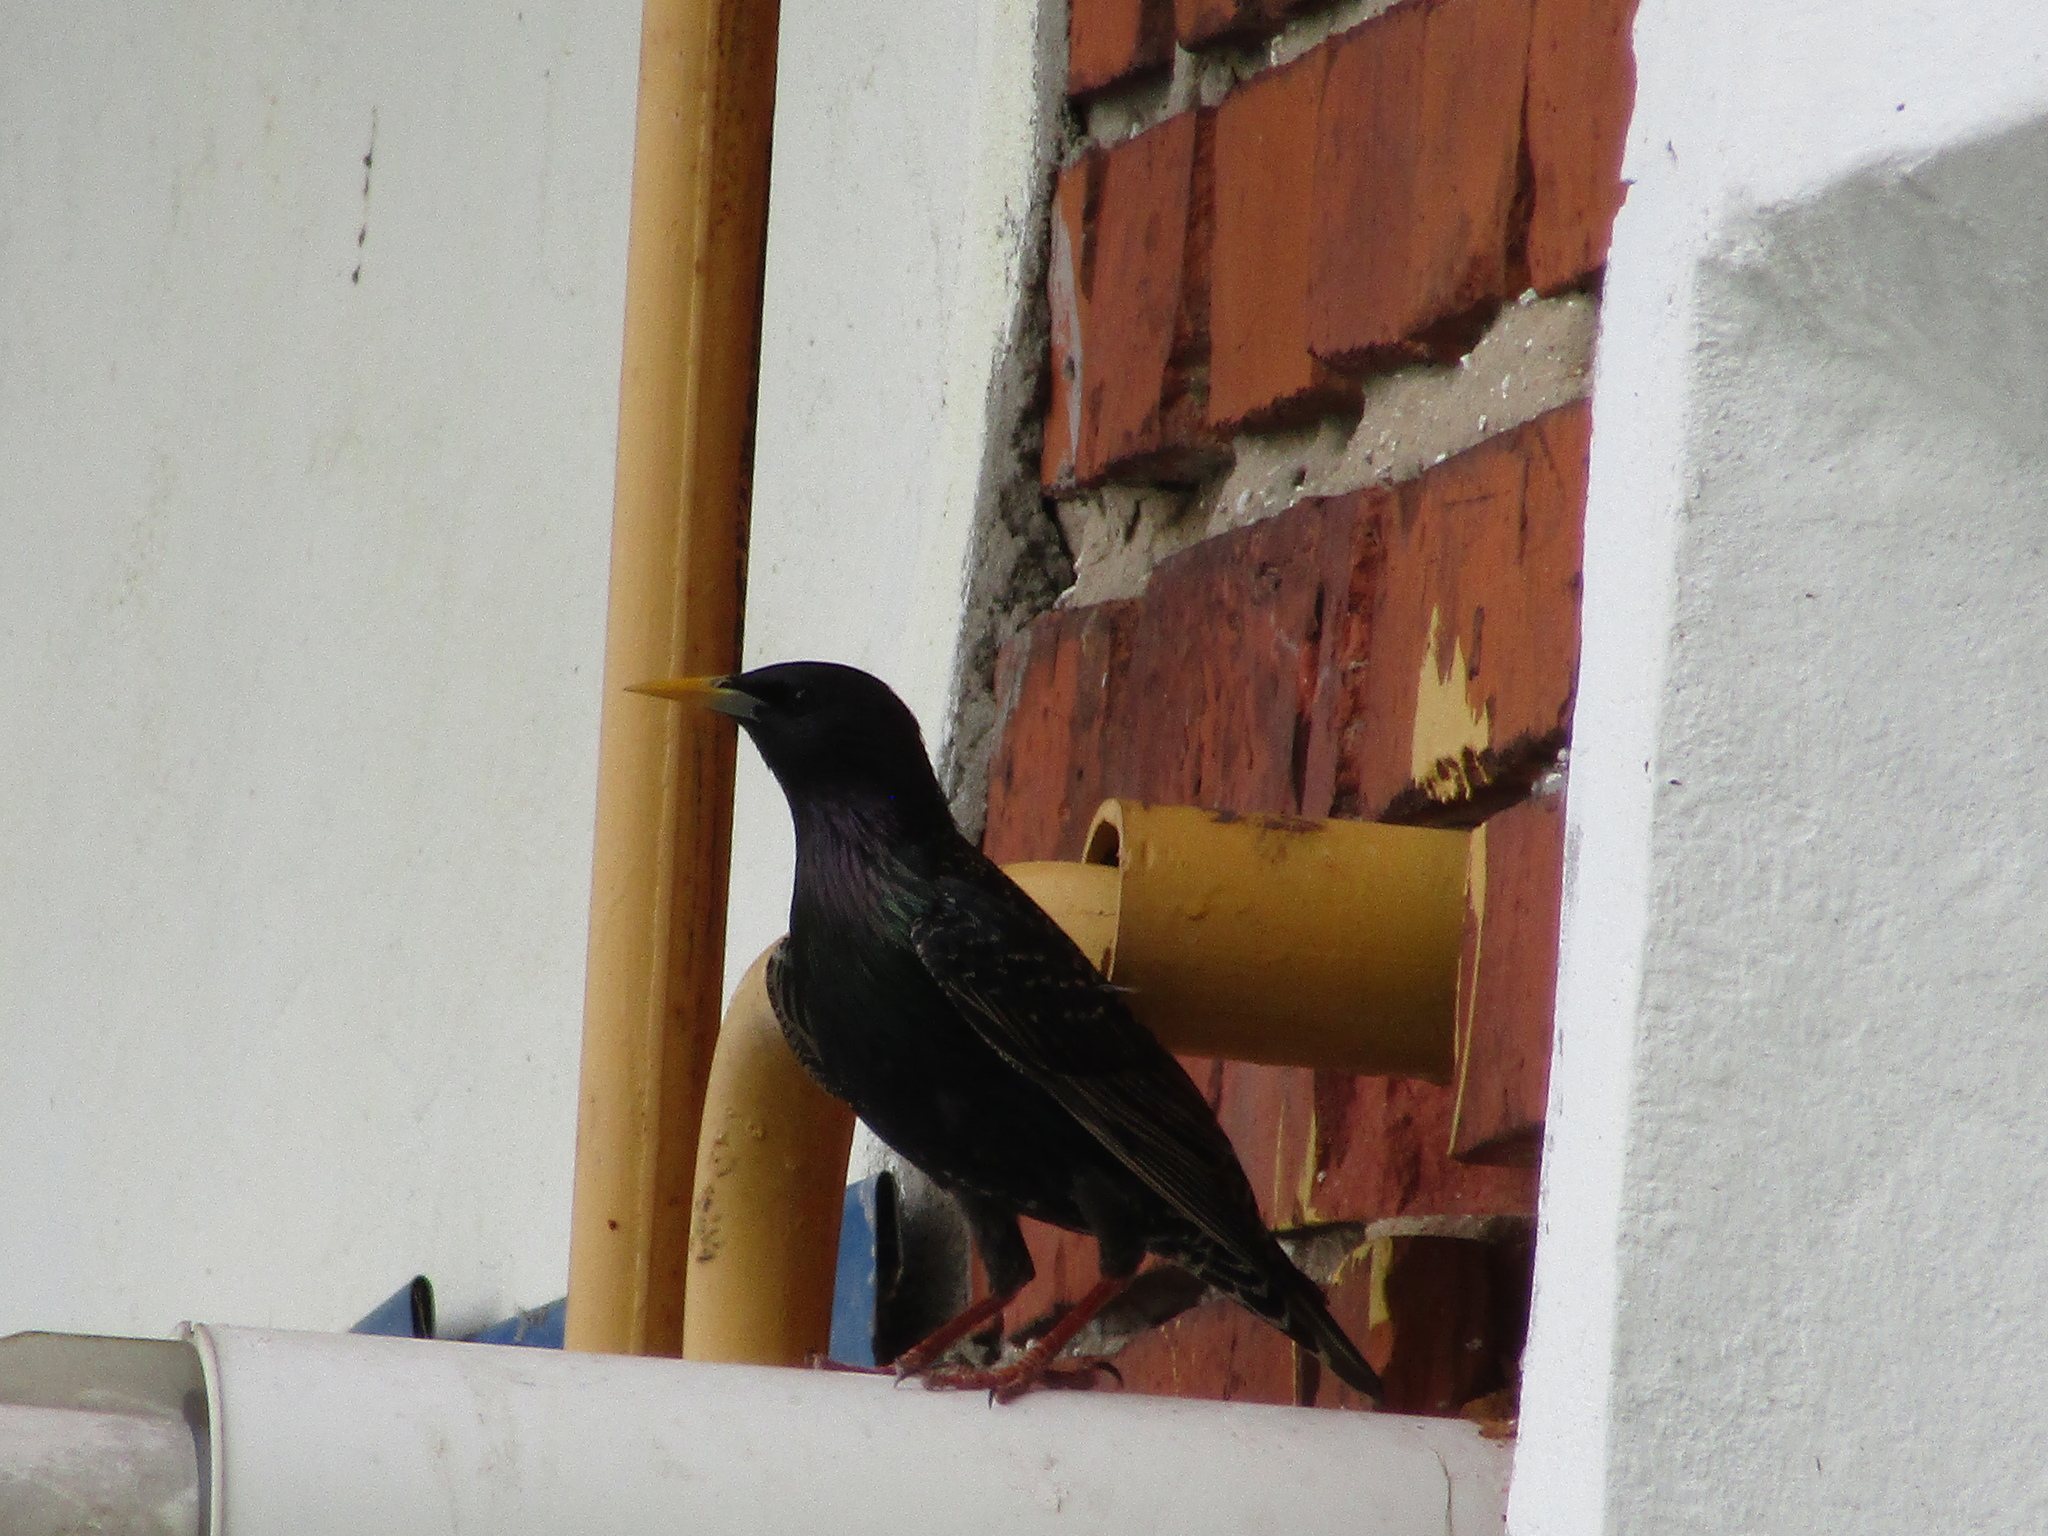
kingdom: Animalia
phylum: Chordata
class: Aves
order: Passeriformes
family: Sturnidae
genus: Sturnus
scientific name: Sturnus vulgaris
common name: Common starling
